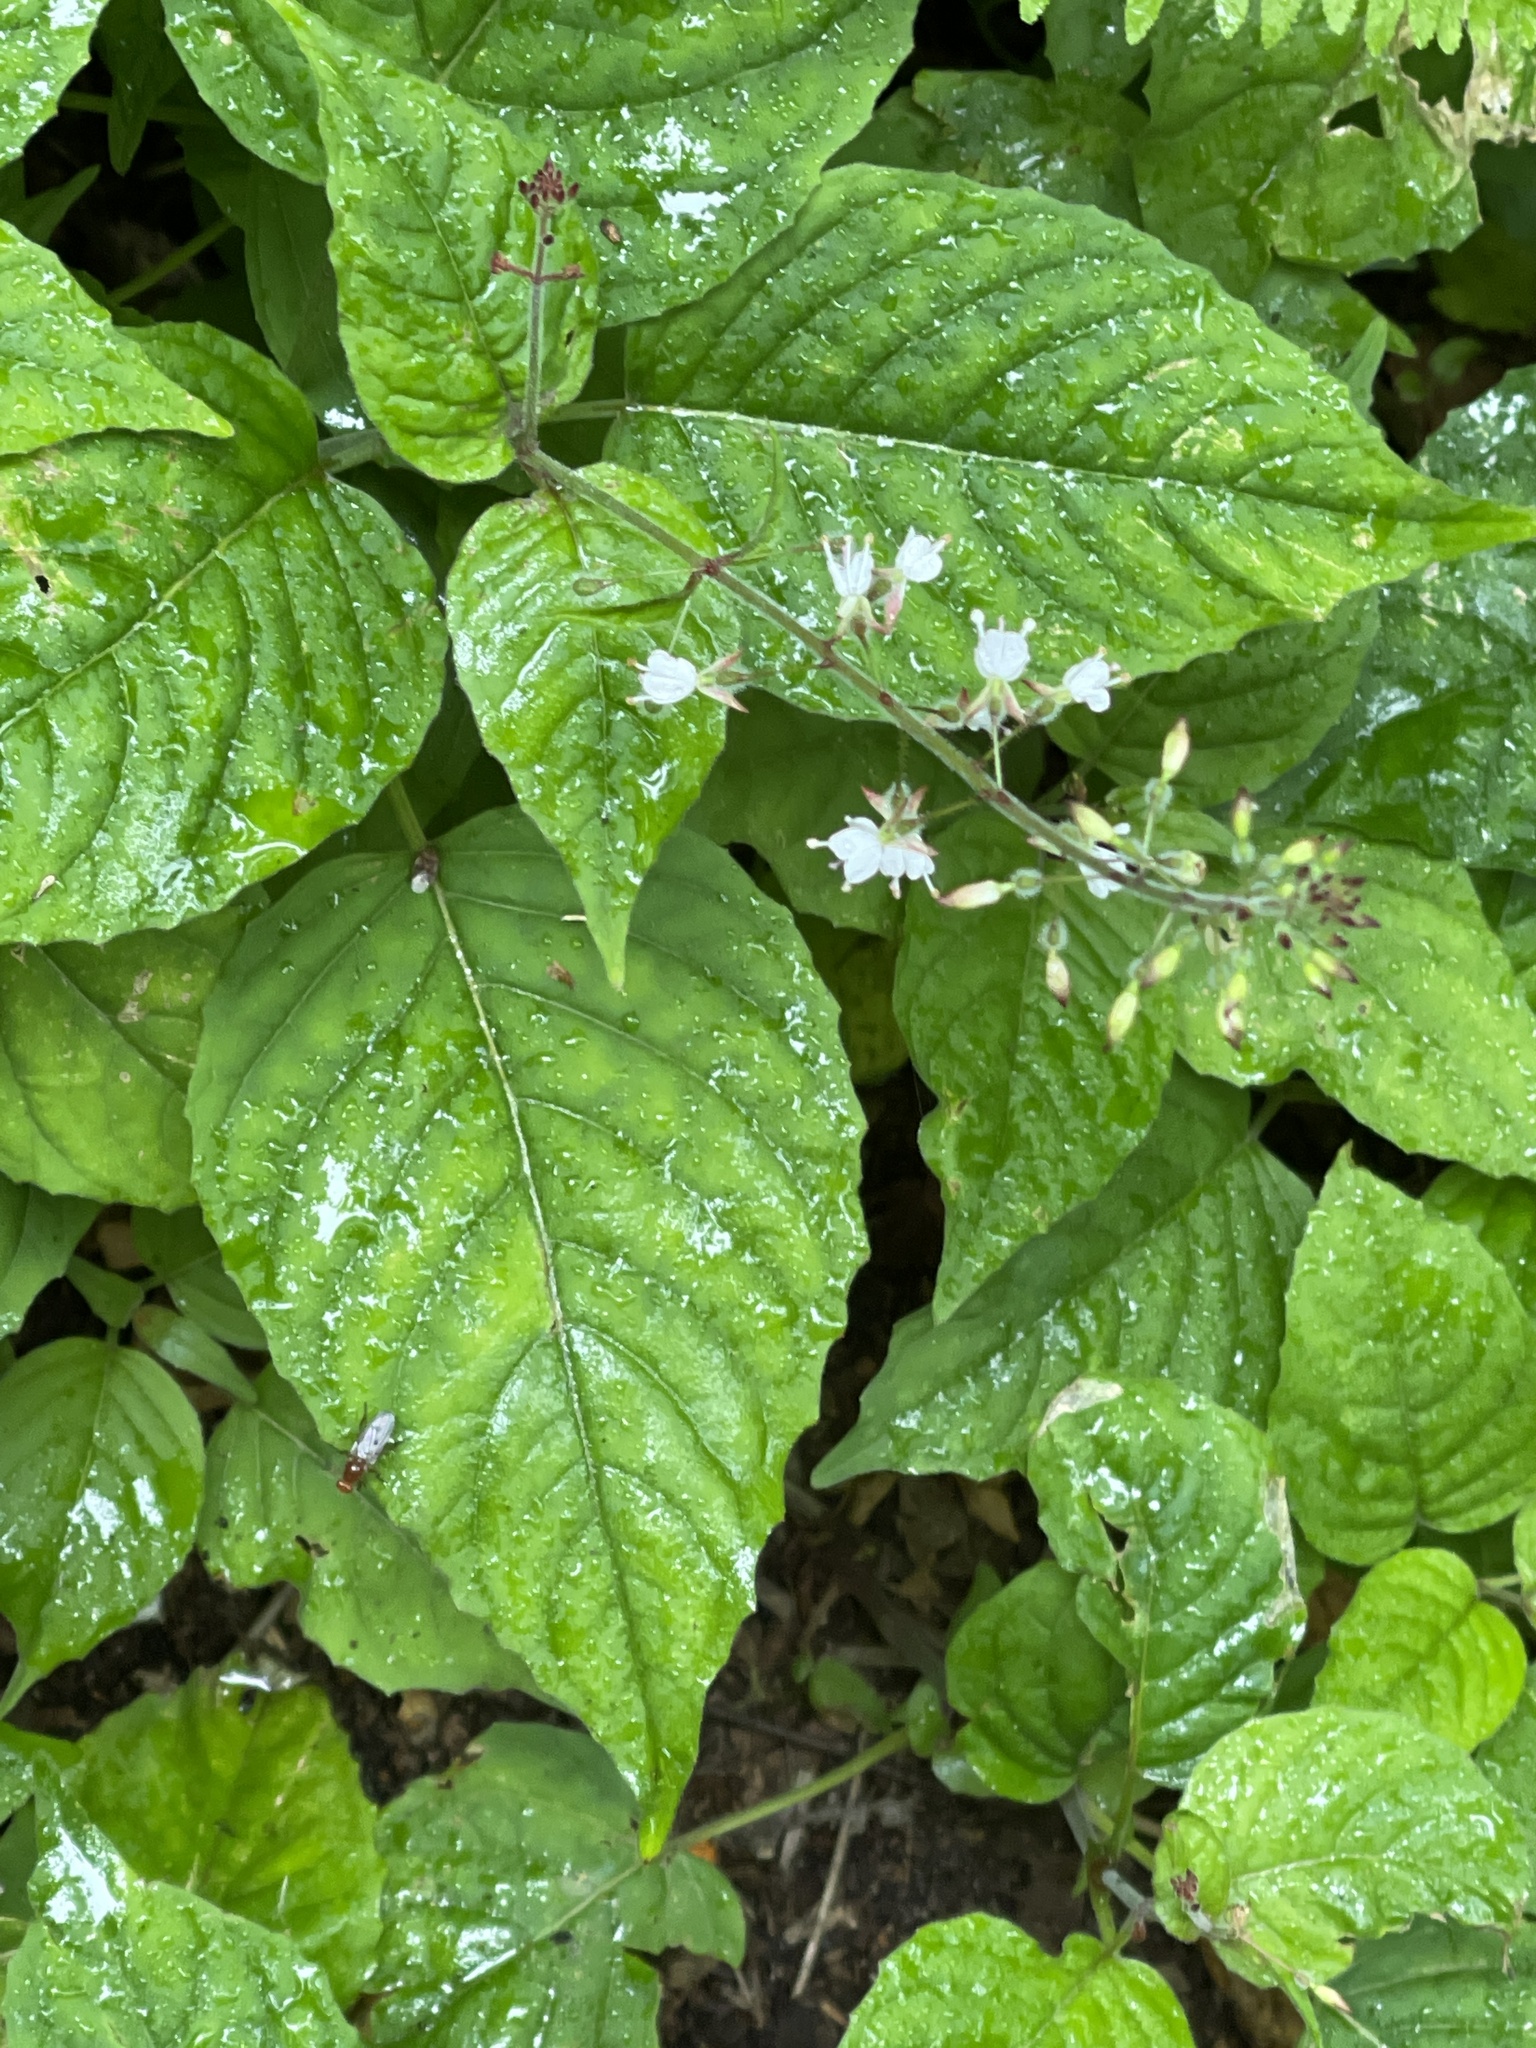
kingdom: Plantae
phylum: Tracheophyta
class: Magnoliopsida
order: Myrtales
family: Onagraceae
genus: Circaea
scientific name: Circaea lutetiana
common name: Enchanter's-nightshade
